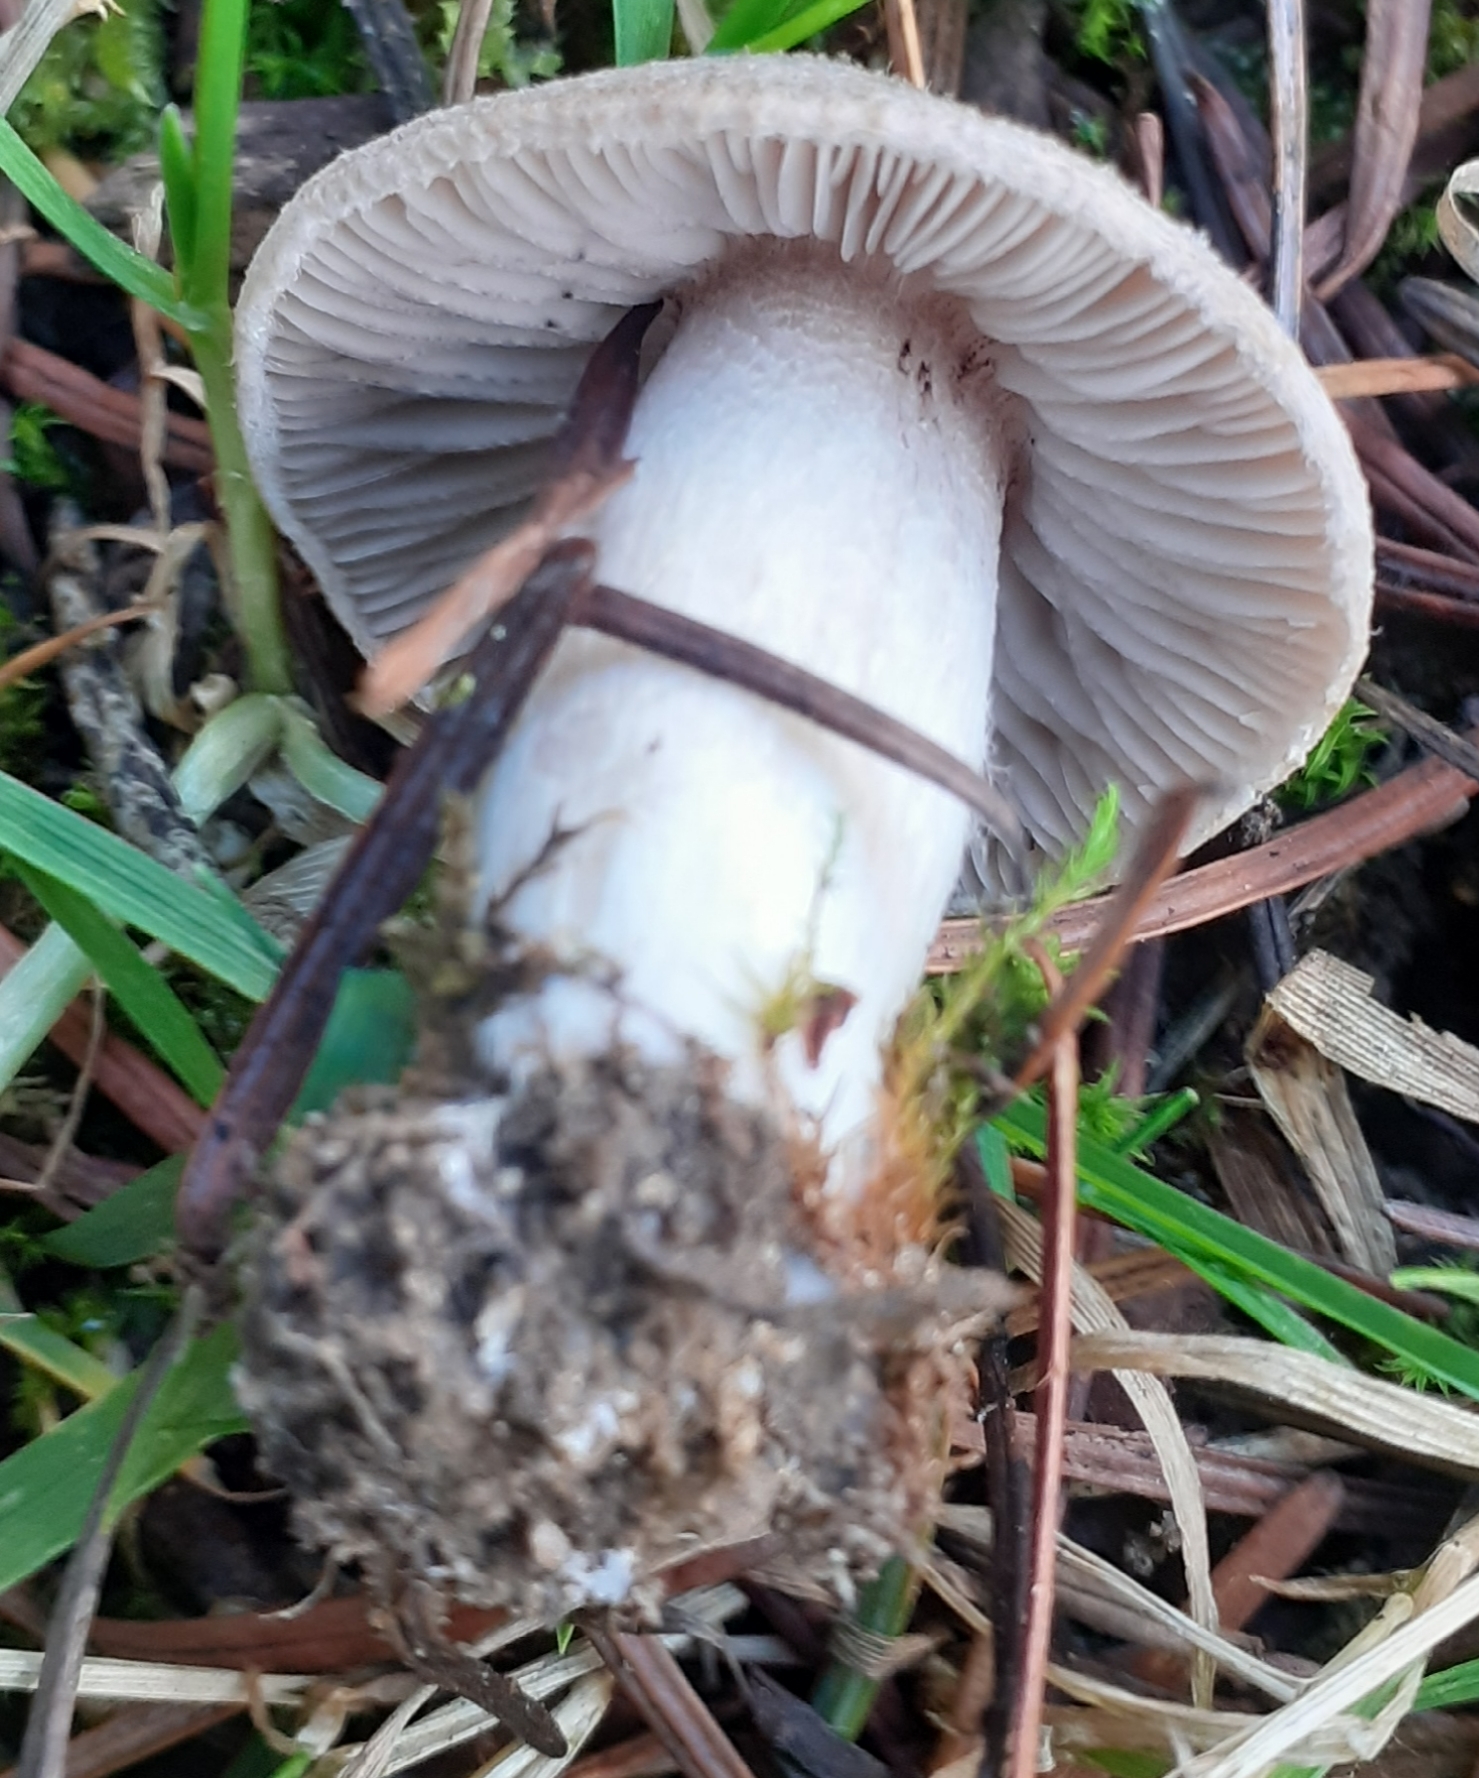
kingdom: Fungi
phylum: Basidiomycota
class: Agaricomycetes
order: Agaricales
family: Tricholomataceae
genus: Tricholoma
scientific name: Tricholoma terreum
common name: Grey knight
